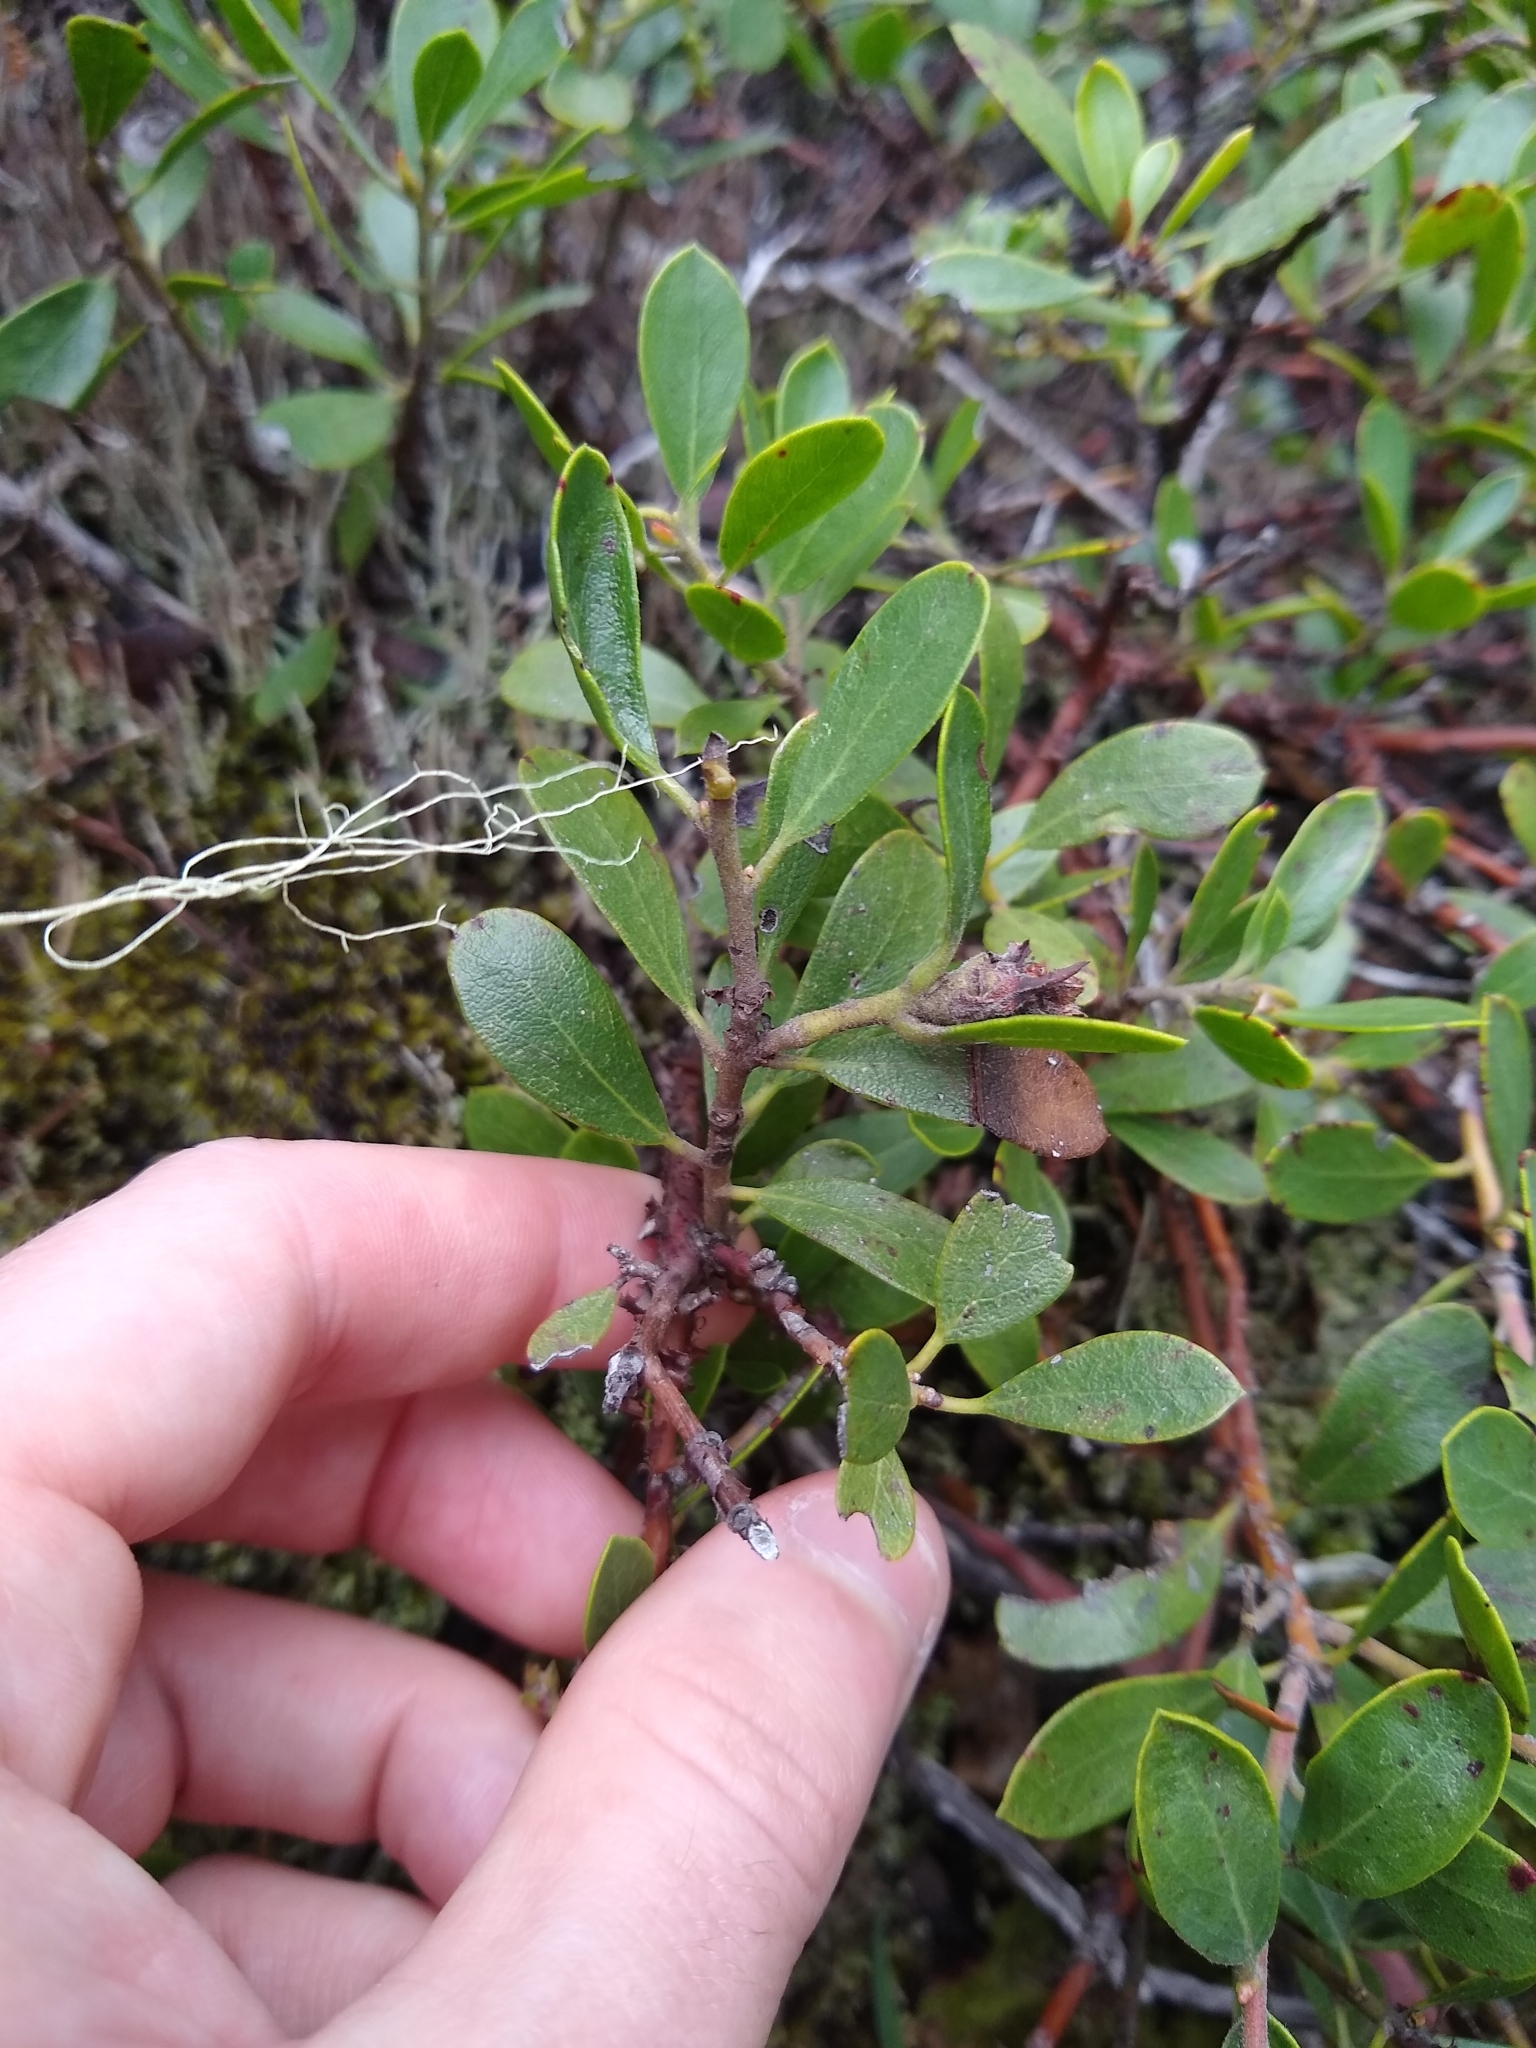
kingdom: Plantae
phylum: Tracheophyta
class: Magnoliopsida
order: Ericales
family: Ericaceae
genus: Arctostaphylos
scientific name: Arctostaphylos nevadensis
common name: Pinemat manzanita
